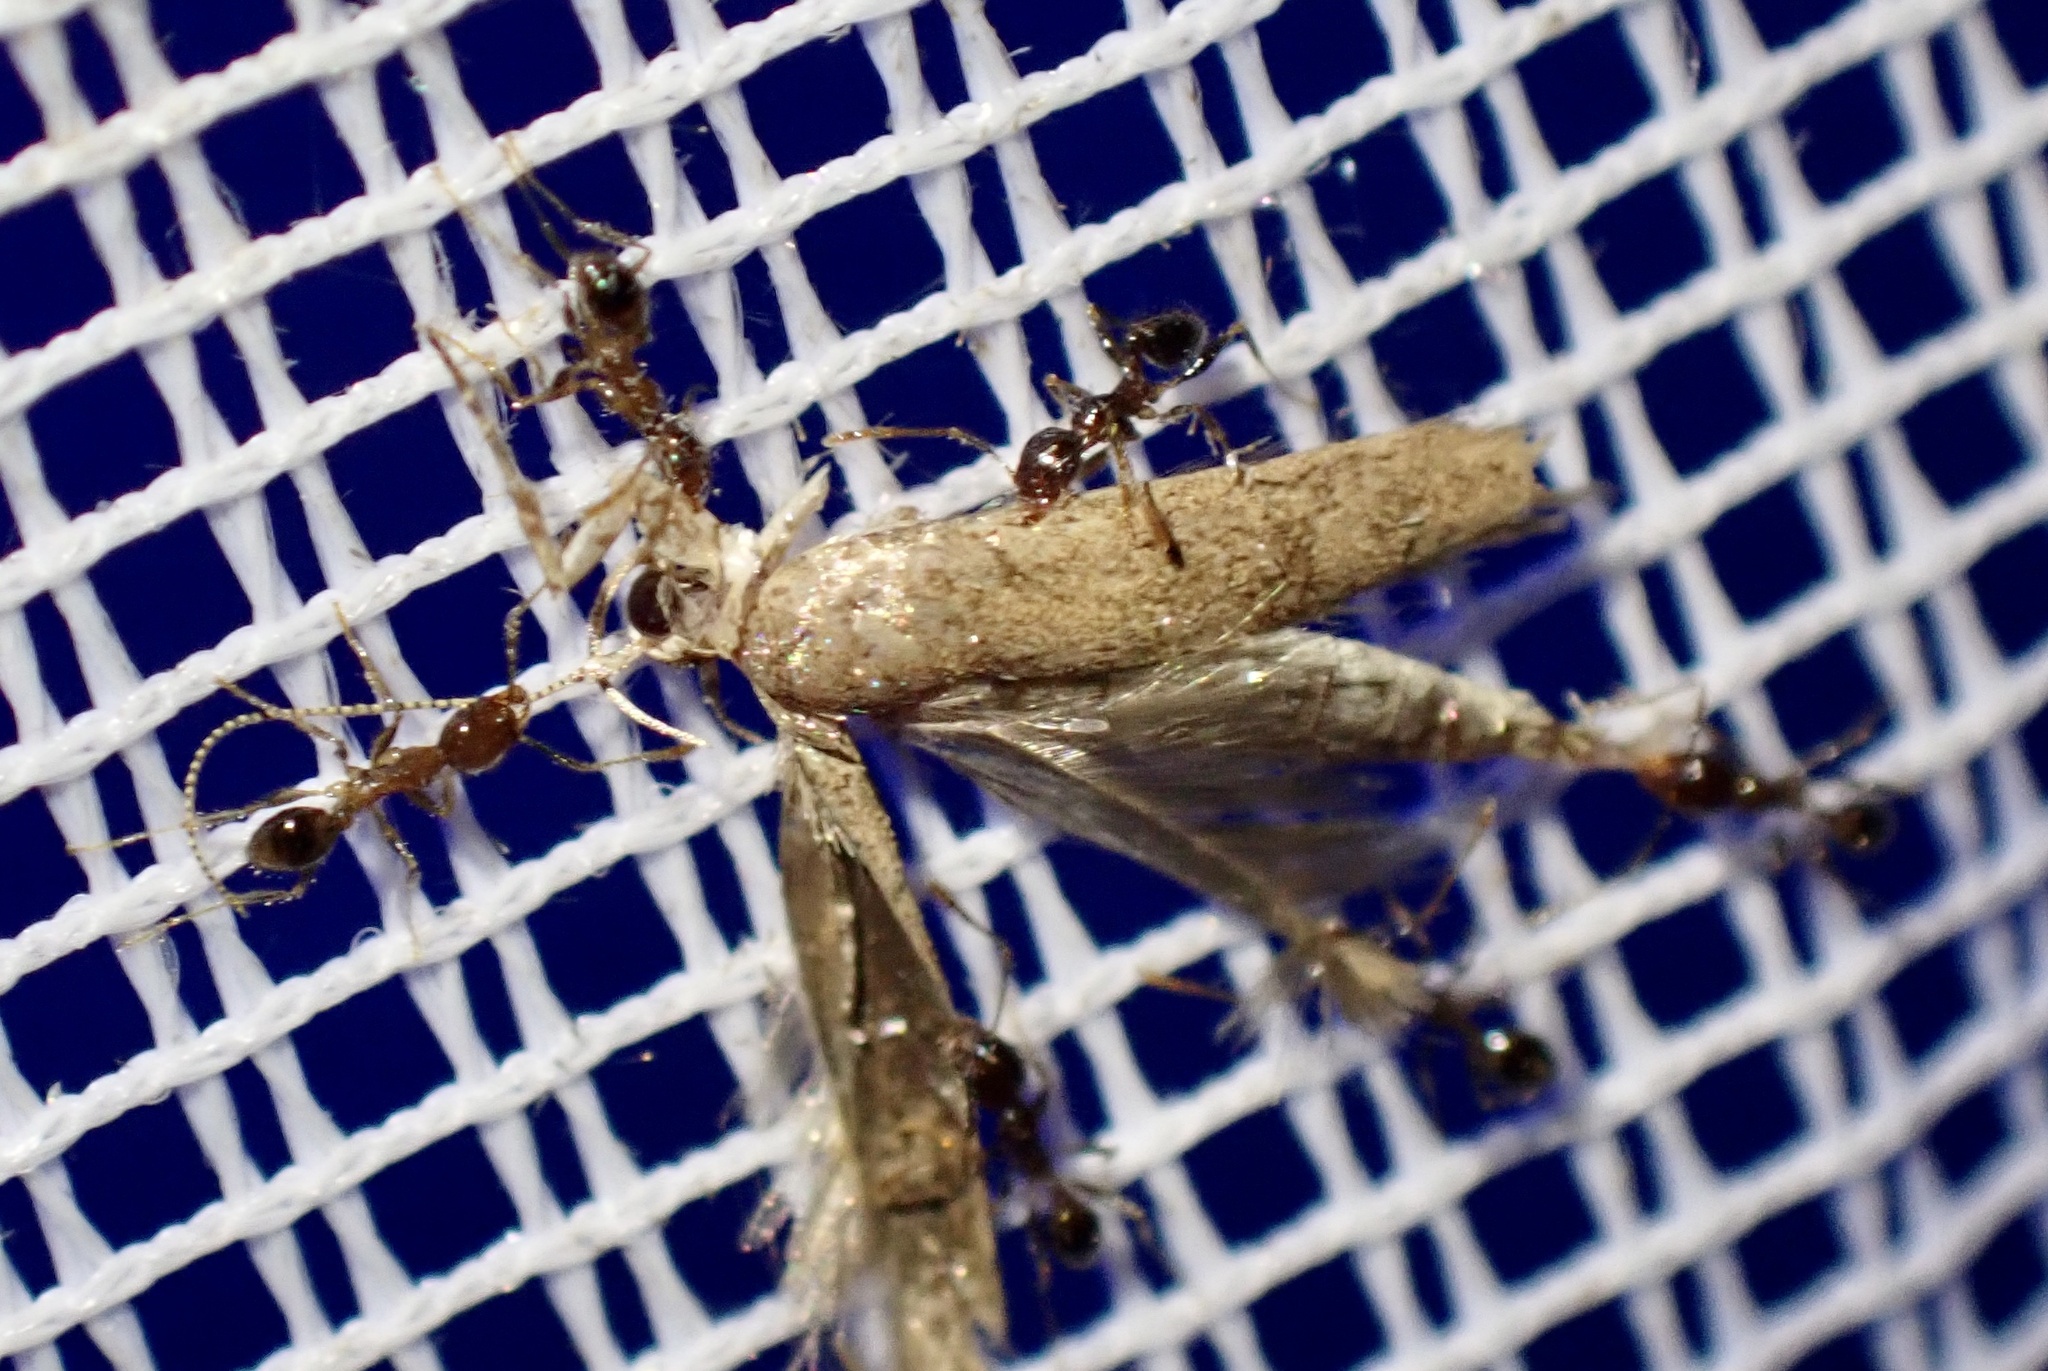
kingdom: Animalia
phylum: Arthropoda
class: Insecta
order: Hymenoptera
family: Formicidae
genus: Pheidole
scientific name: Pheidole megacephala
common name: Bigheaded ant
